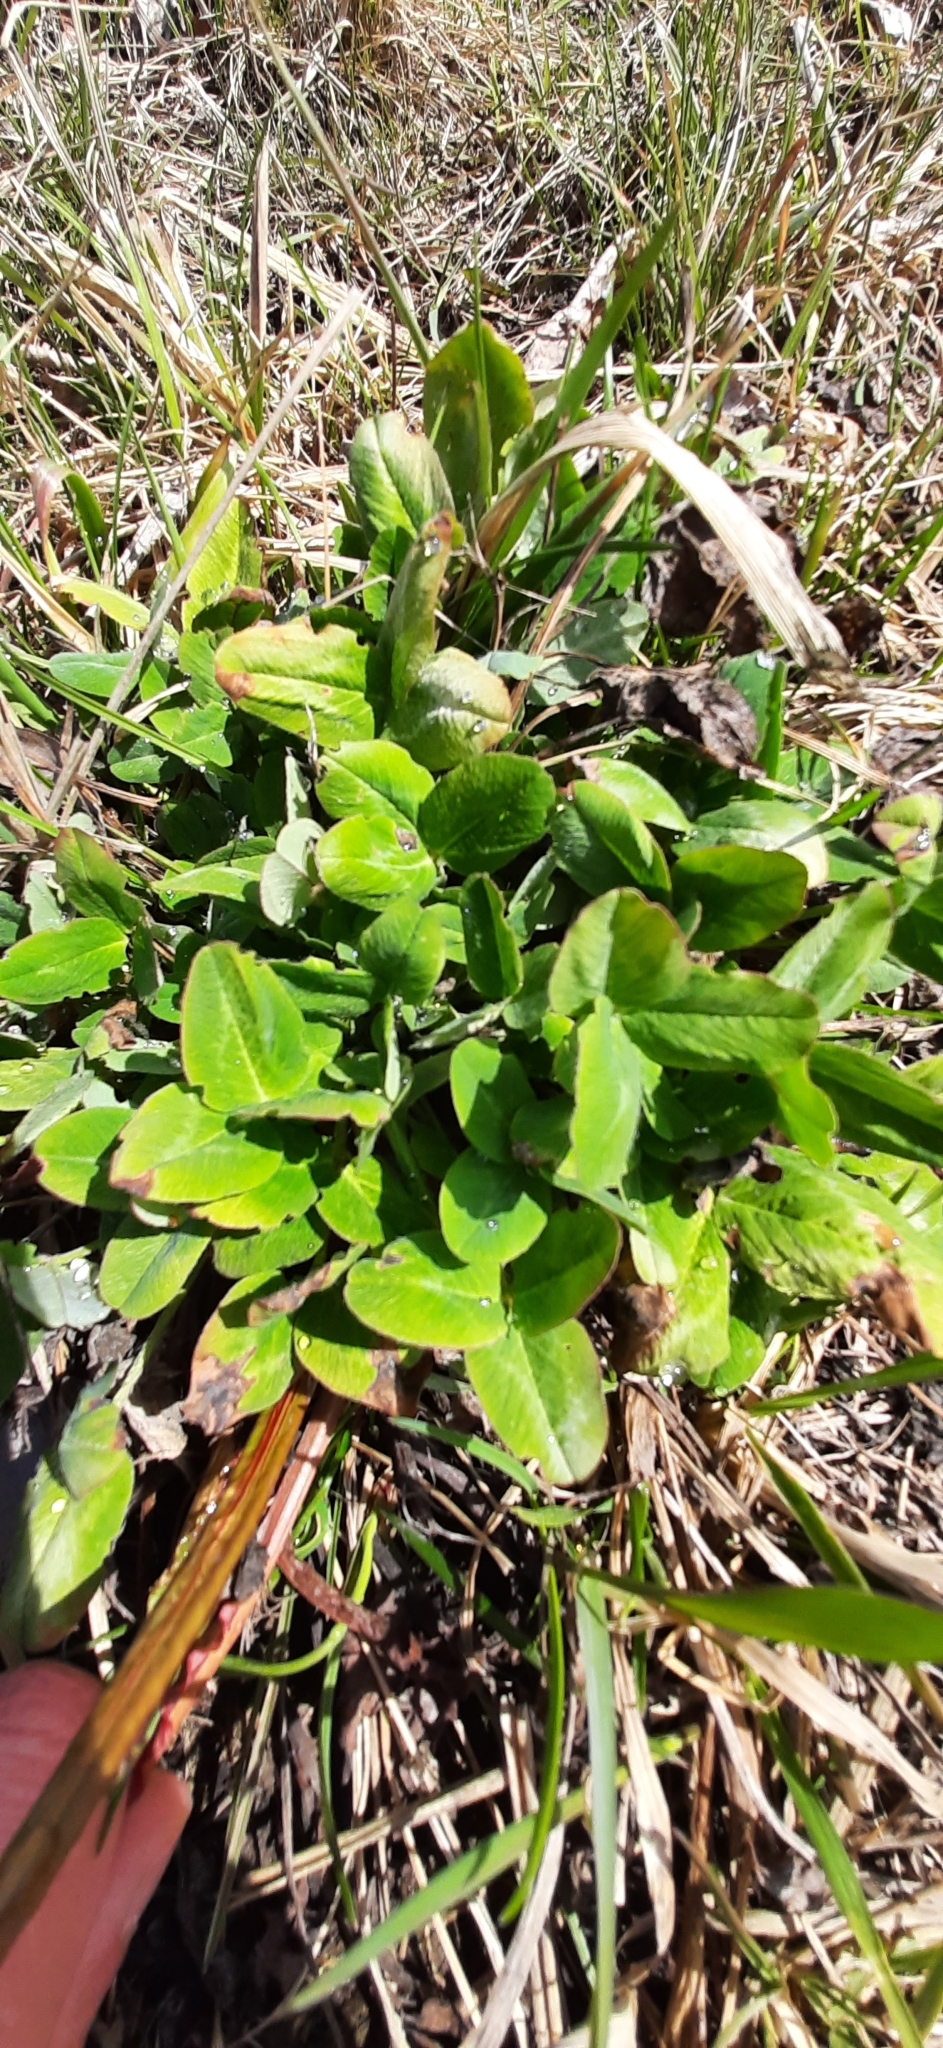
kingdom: Plantae
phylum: Tracheophyta
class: Magnoliopsida
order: Fabales
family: Fabaceae
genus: Trifolium
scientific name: Trifolium pratense
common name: Red clover
